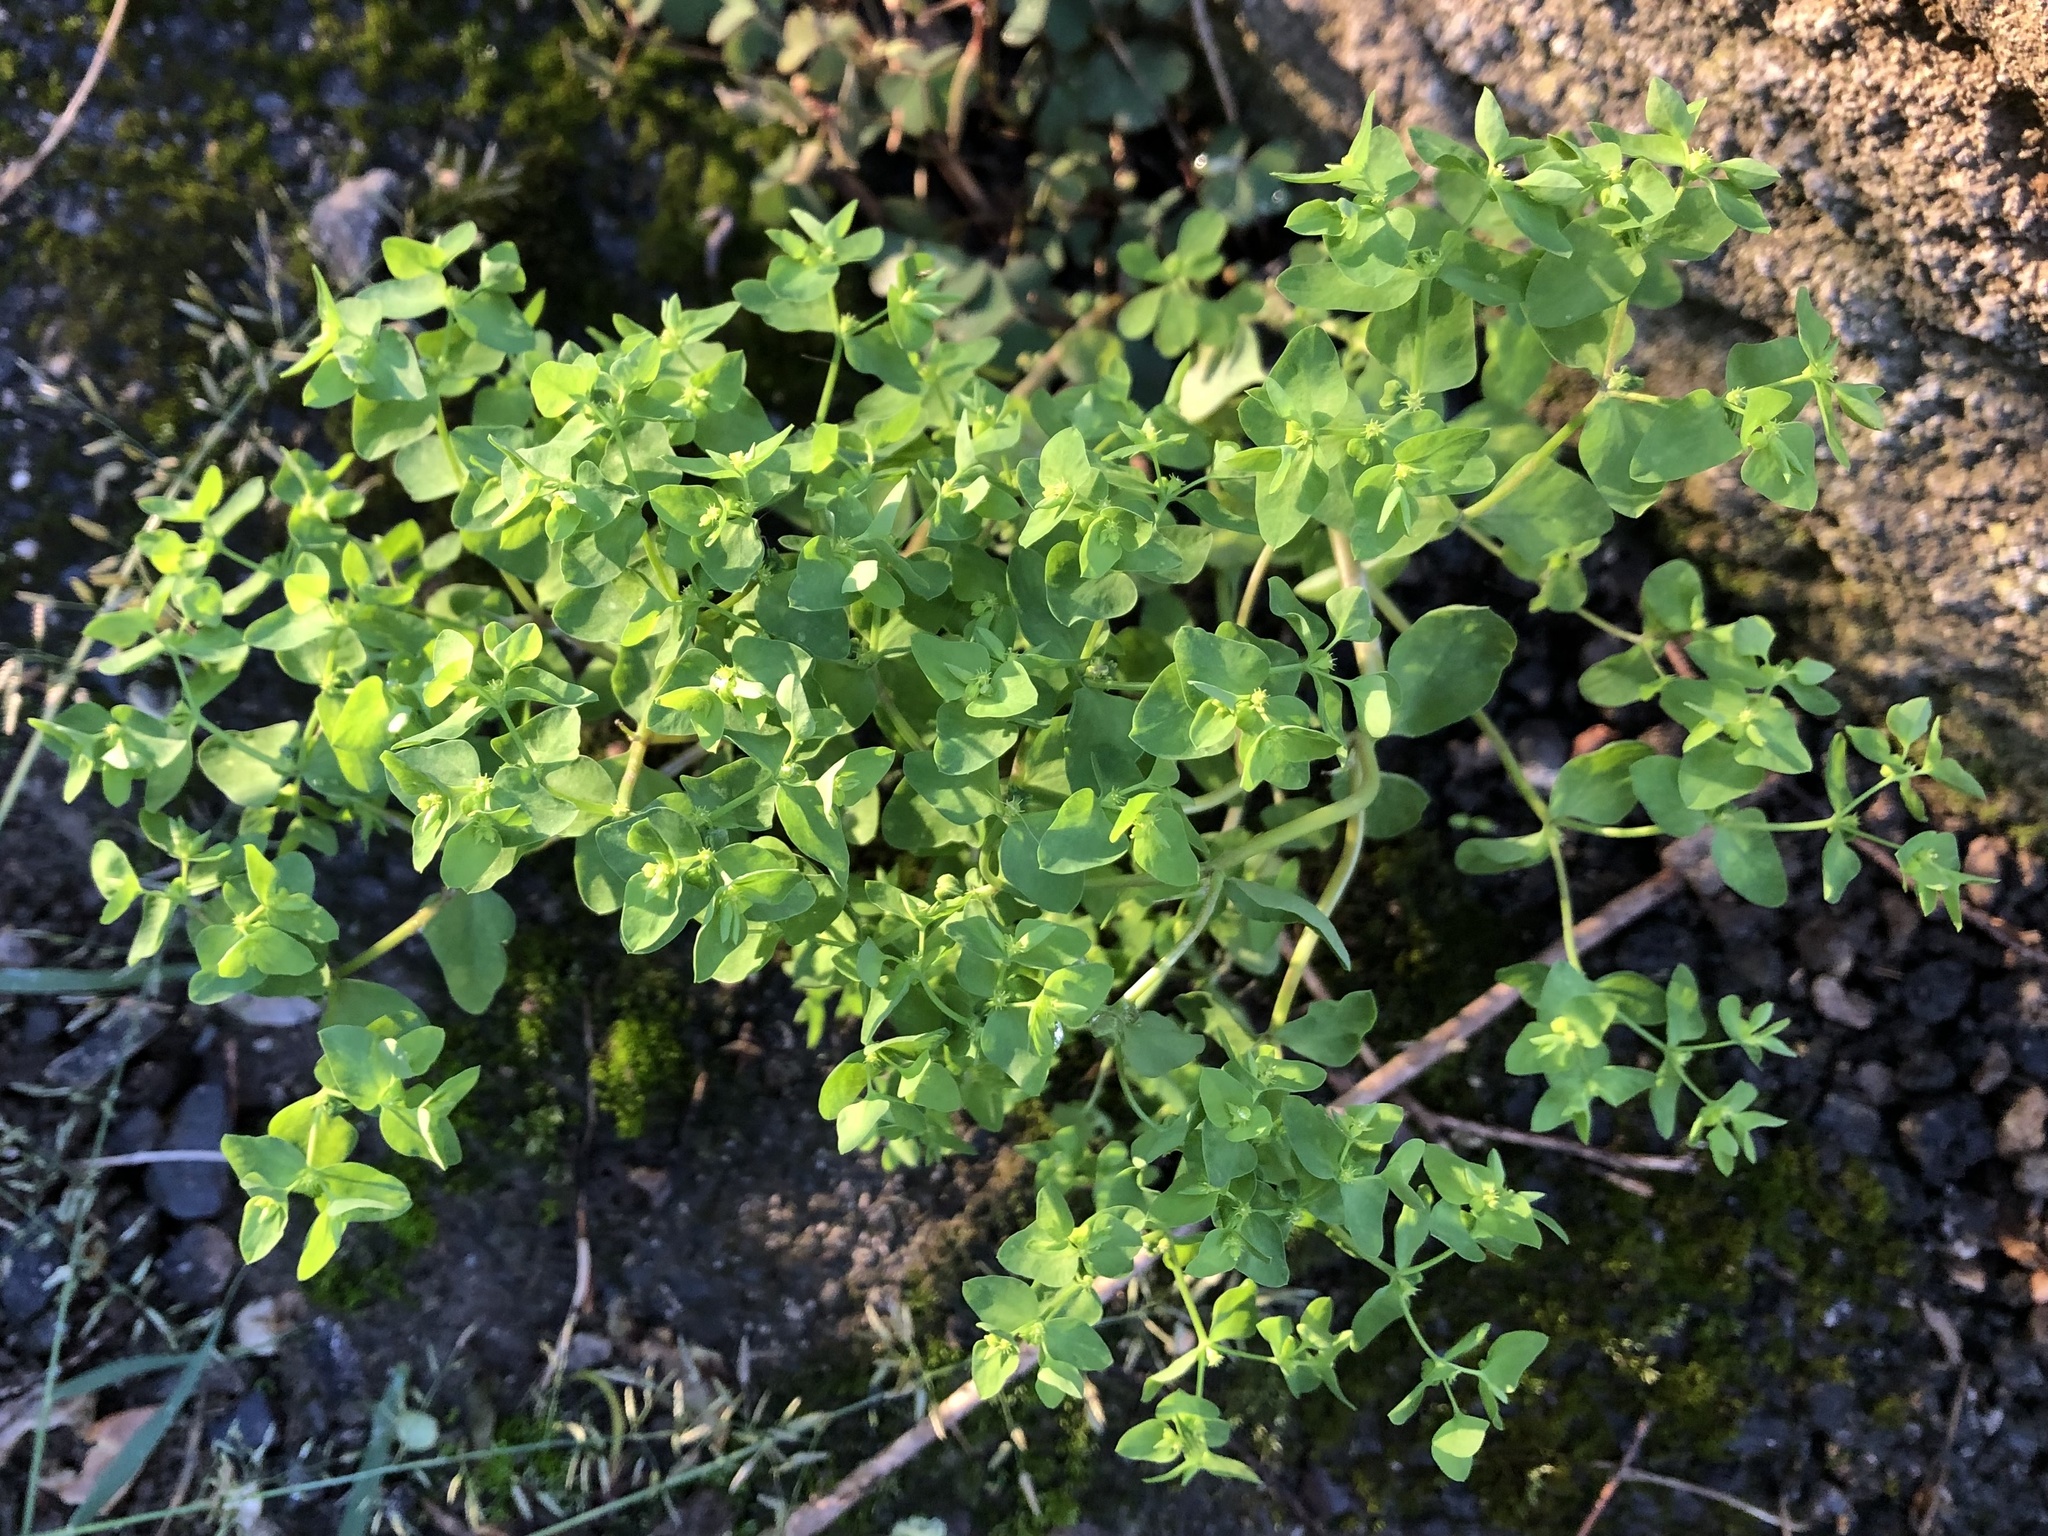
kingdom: Plantae
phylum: Tracheophyta
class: Magnoliopsida
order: Malpighiales
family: Euphorbiaceae
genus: Euphorbia
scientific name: Euphorbia peplus
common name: Petty spurge
